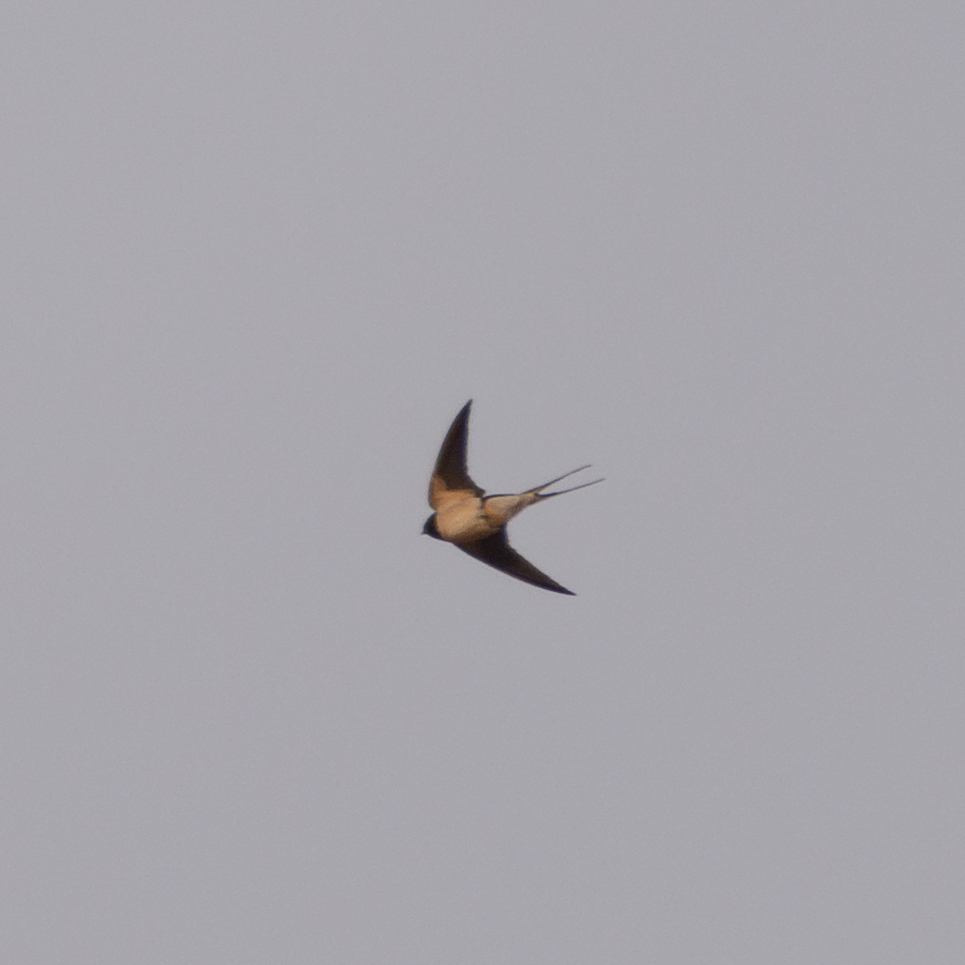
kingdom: Animalia
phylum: Chordata
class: Aves
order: Passeriformes
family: Hirundinidae
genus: Hirundo
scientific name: Hirundo rustica
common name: Barn swallow
